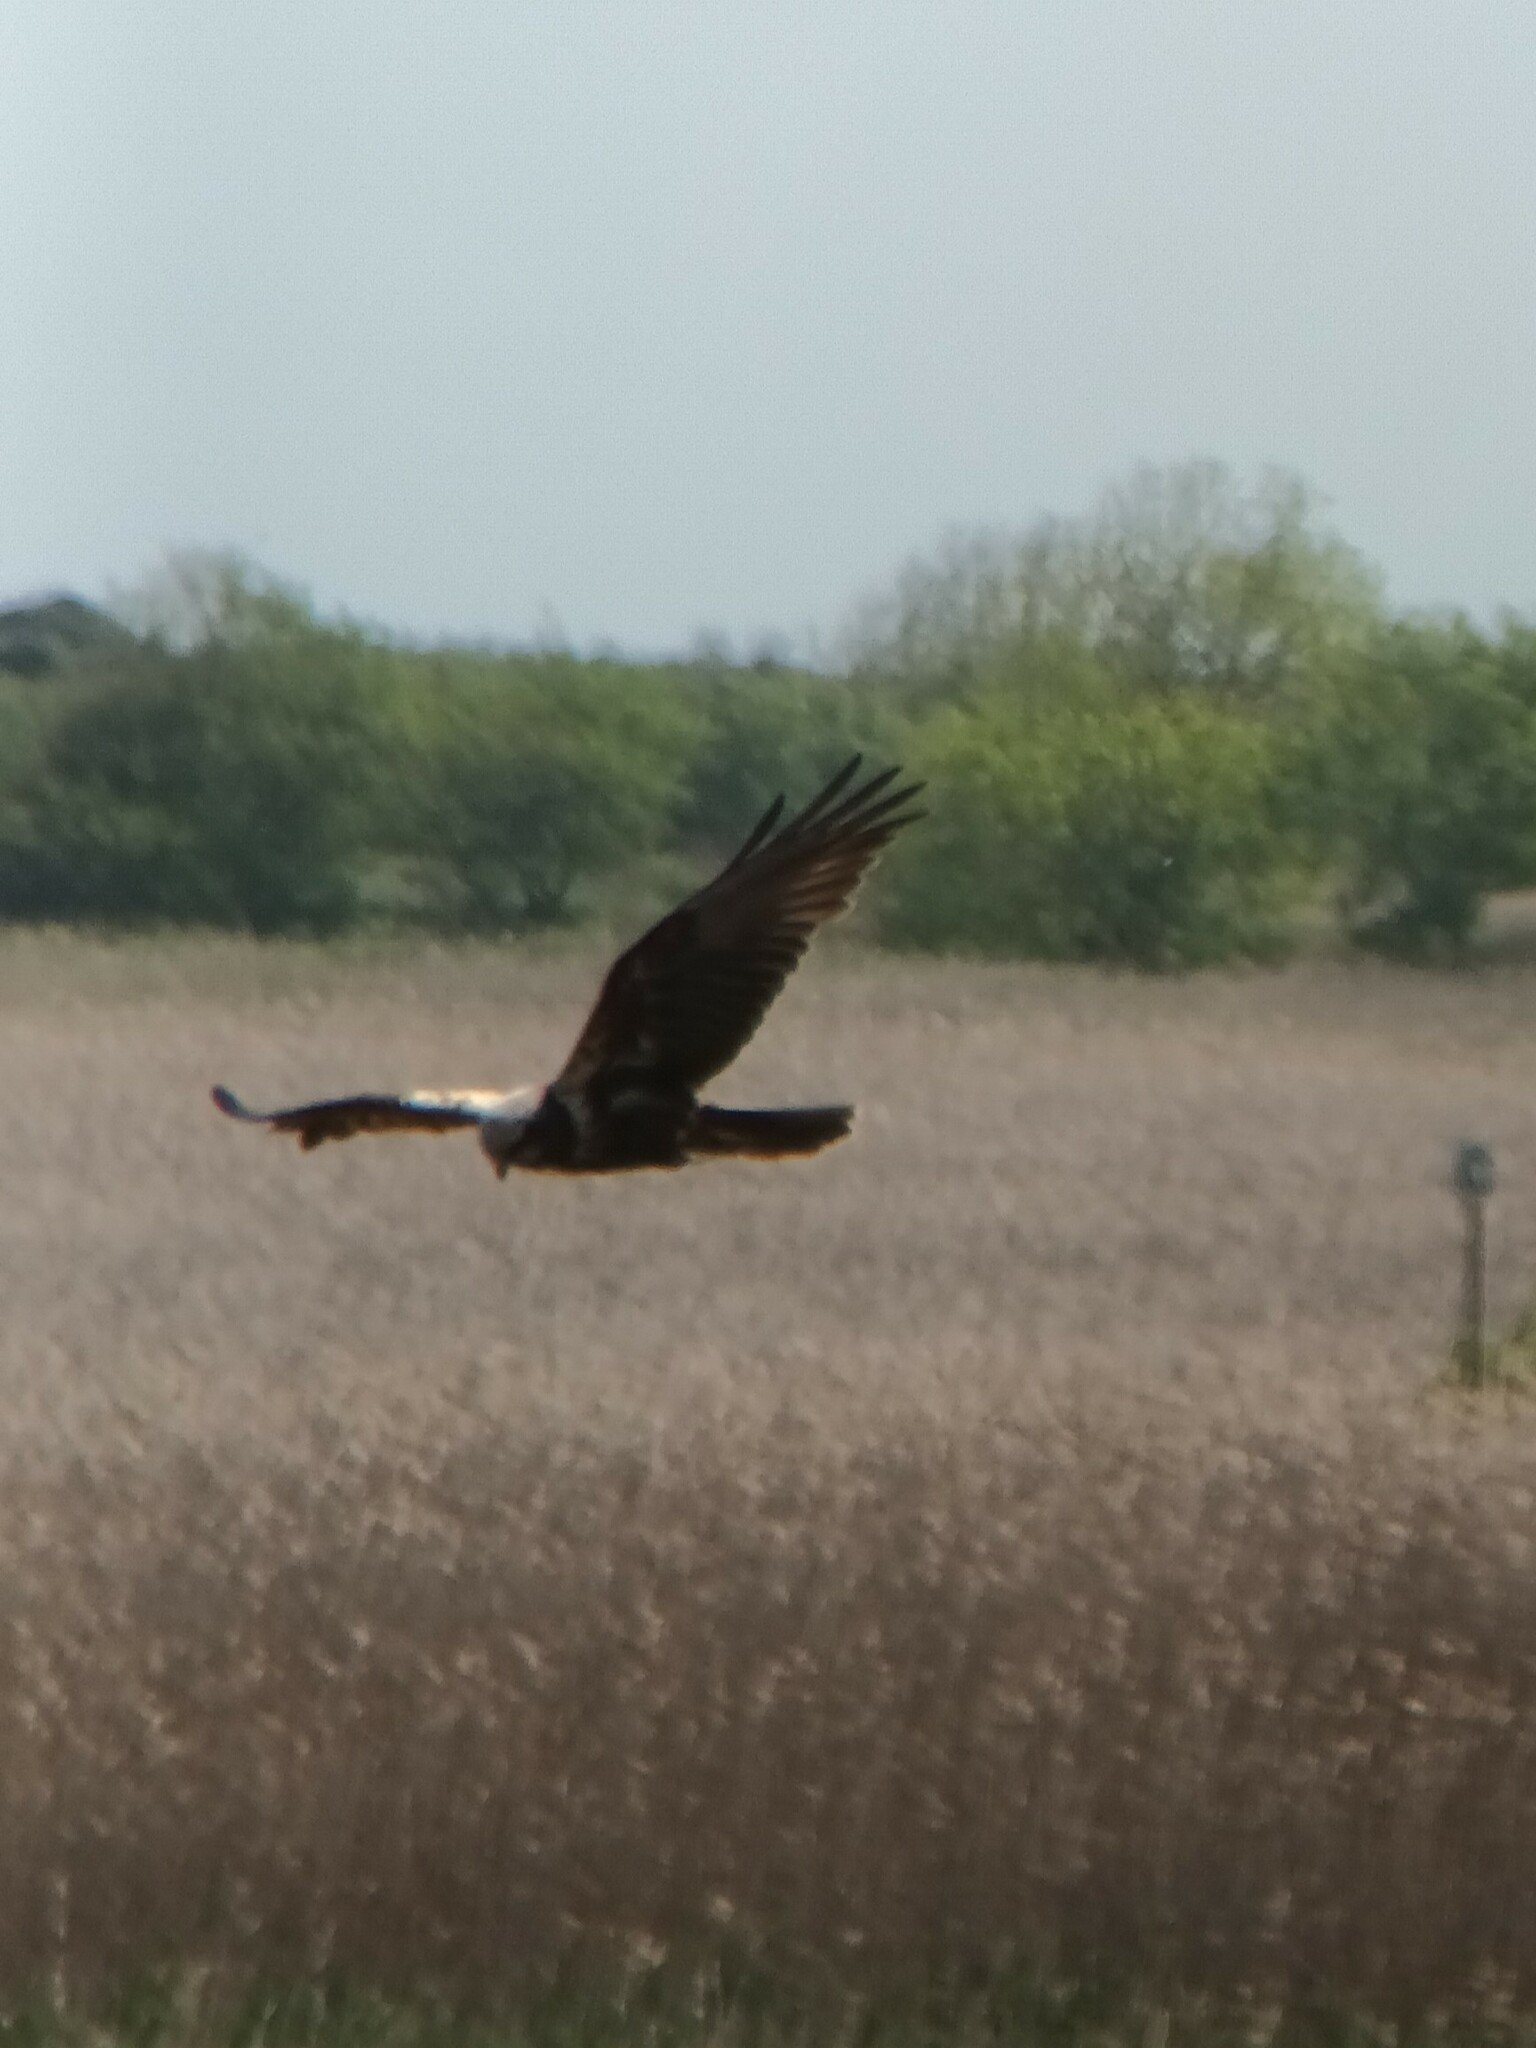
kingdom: Animalia
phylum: Chordata
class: Aves
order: Accipitriformes
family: Accipitridae
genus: Circus
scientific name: Circus aeruginosus
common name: Western marsh harrier
